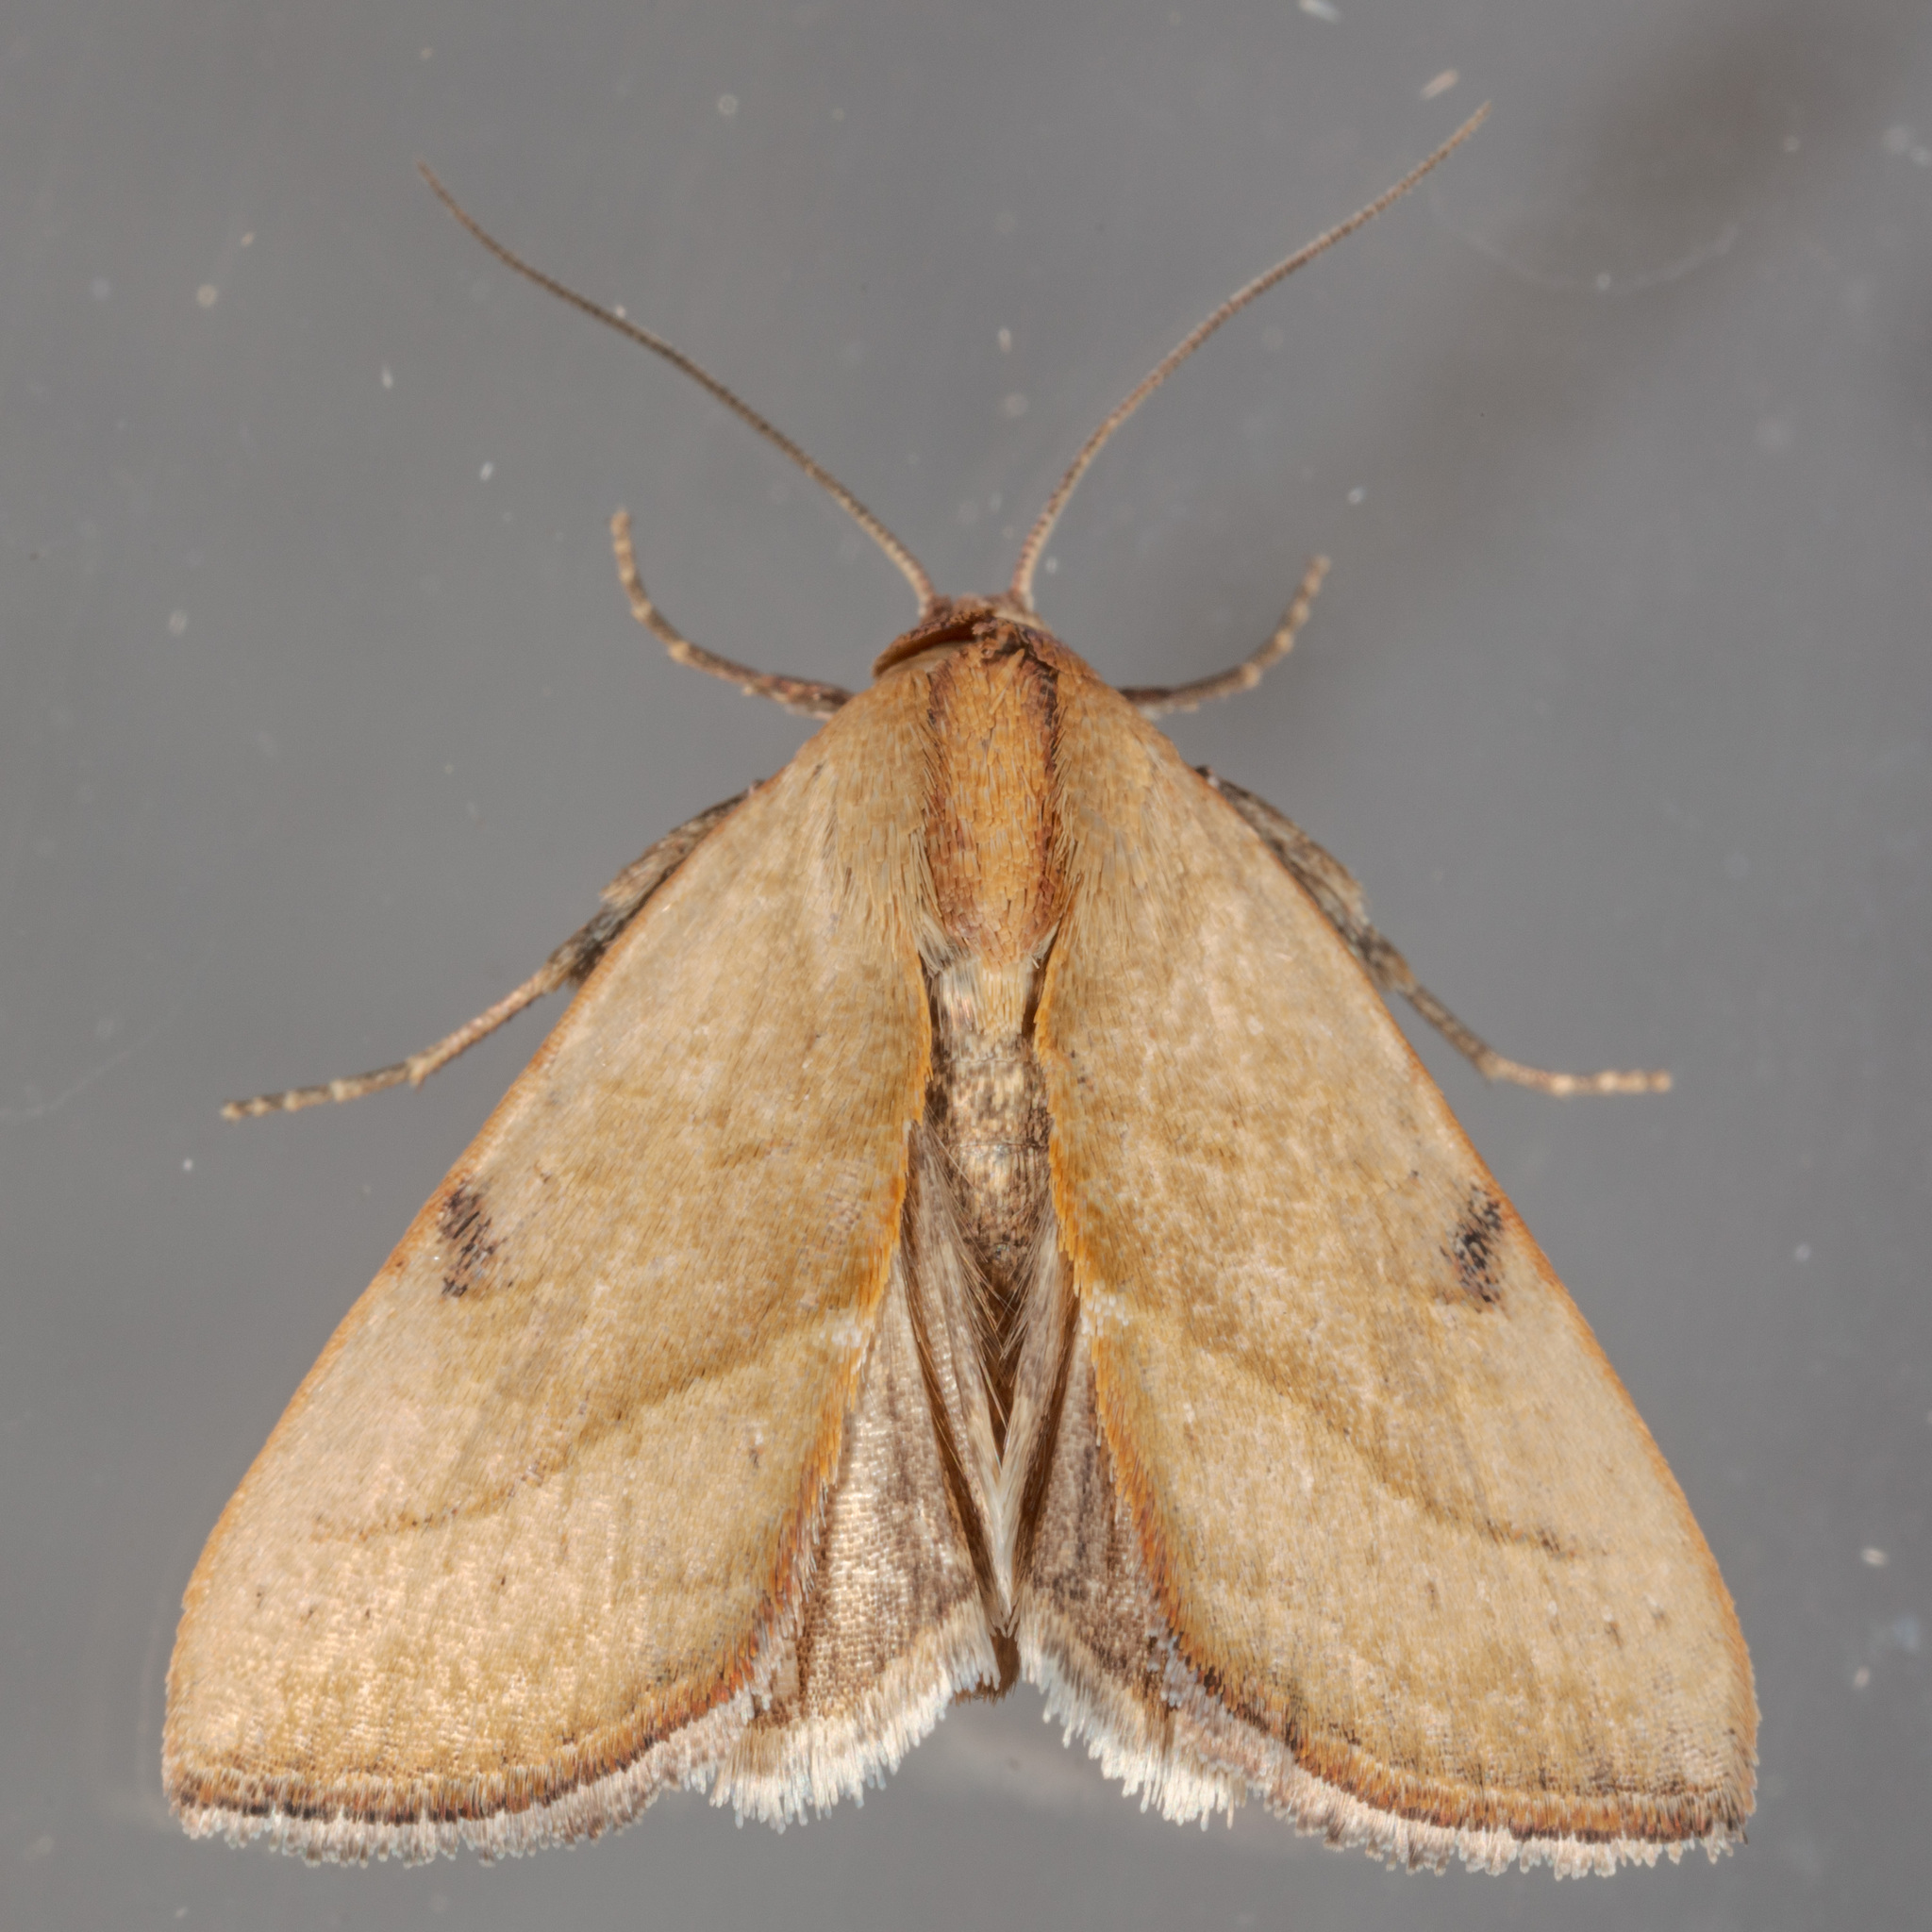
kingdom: Animalia
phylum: Arthropoda
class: Insecta
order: Lepidoptera
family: Noctuidae
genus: Galgula
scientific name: Galgula partita
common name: Wedgeling
